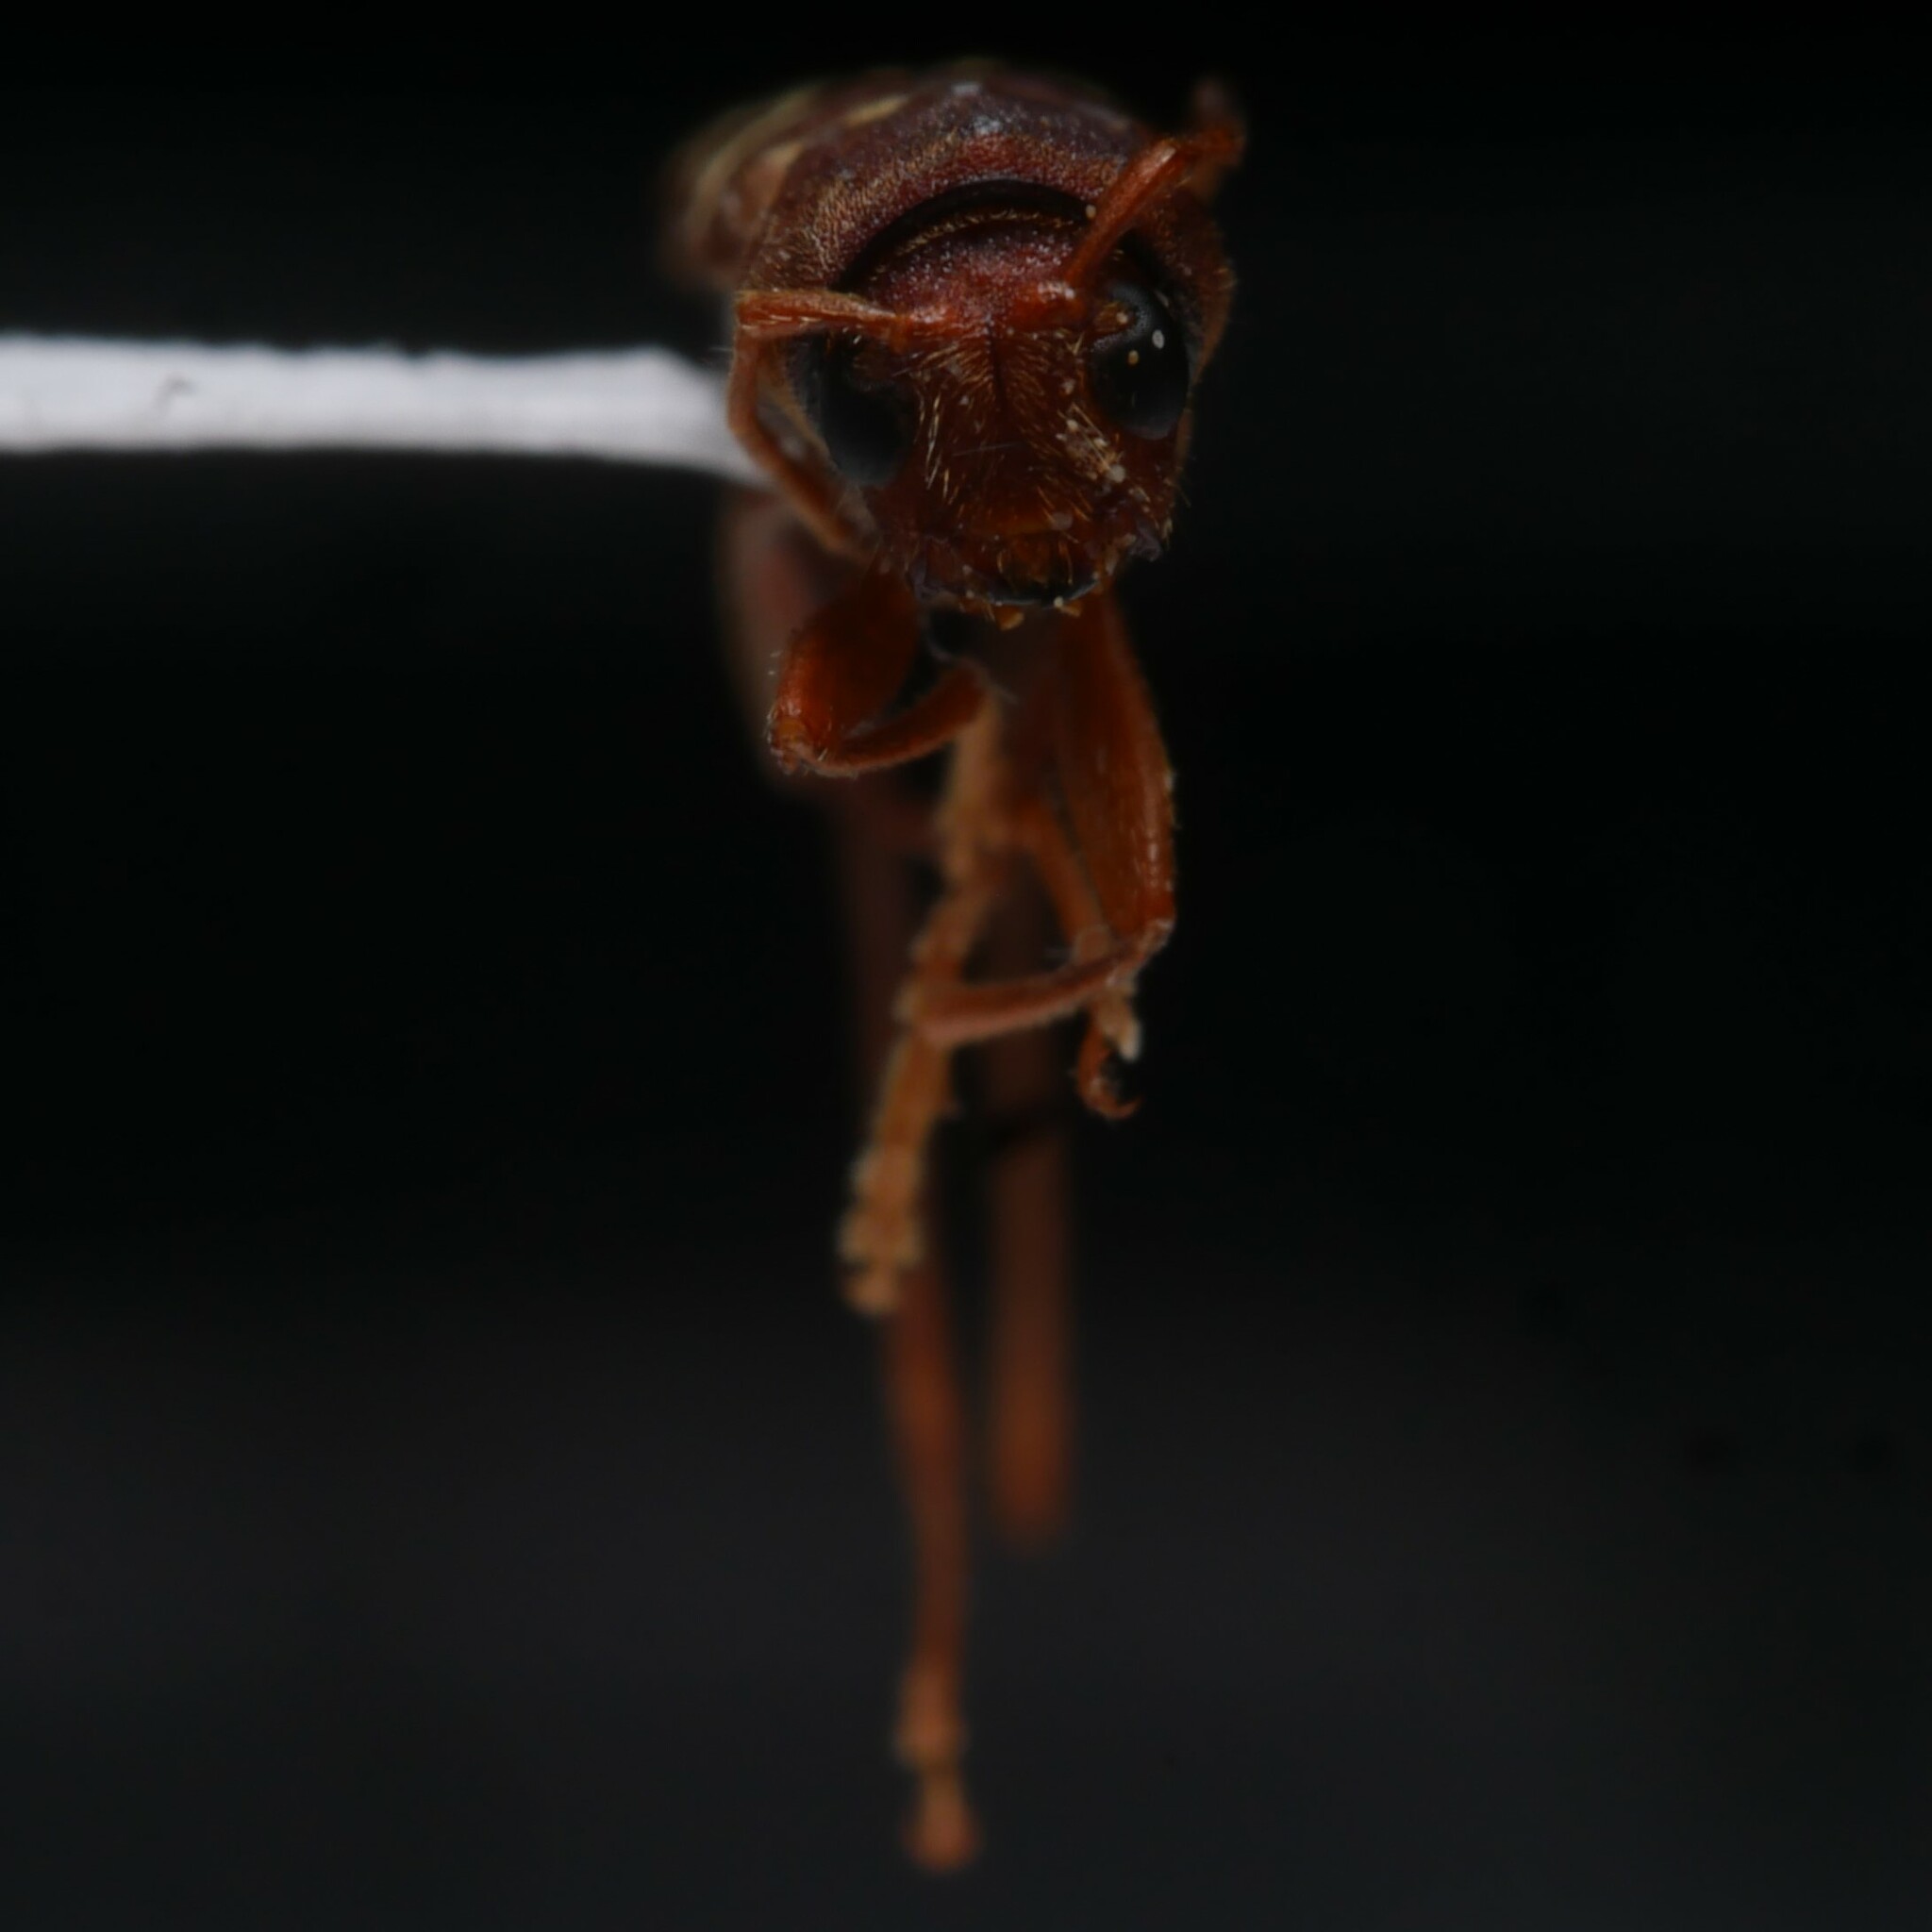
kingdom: Animalia
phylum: Arthropoda
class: Insecta
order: Coleoptera
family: Cerambycidae
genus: Neoclytus
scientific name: Neoclytus acuminatus
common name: Read-headed ash borer
